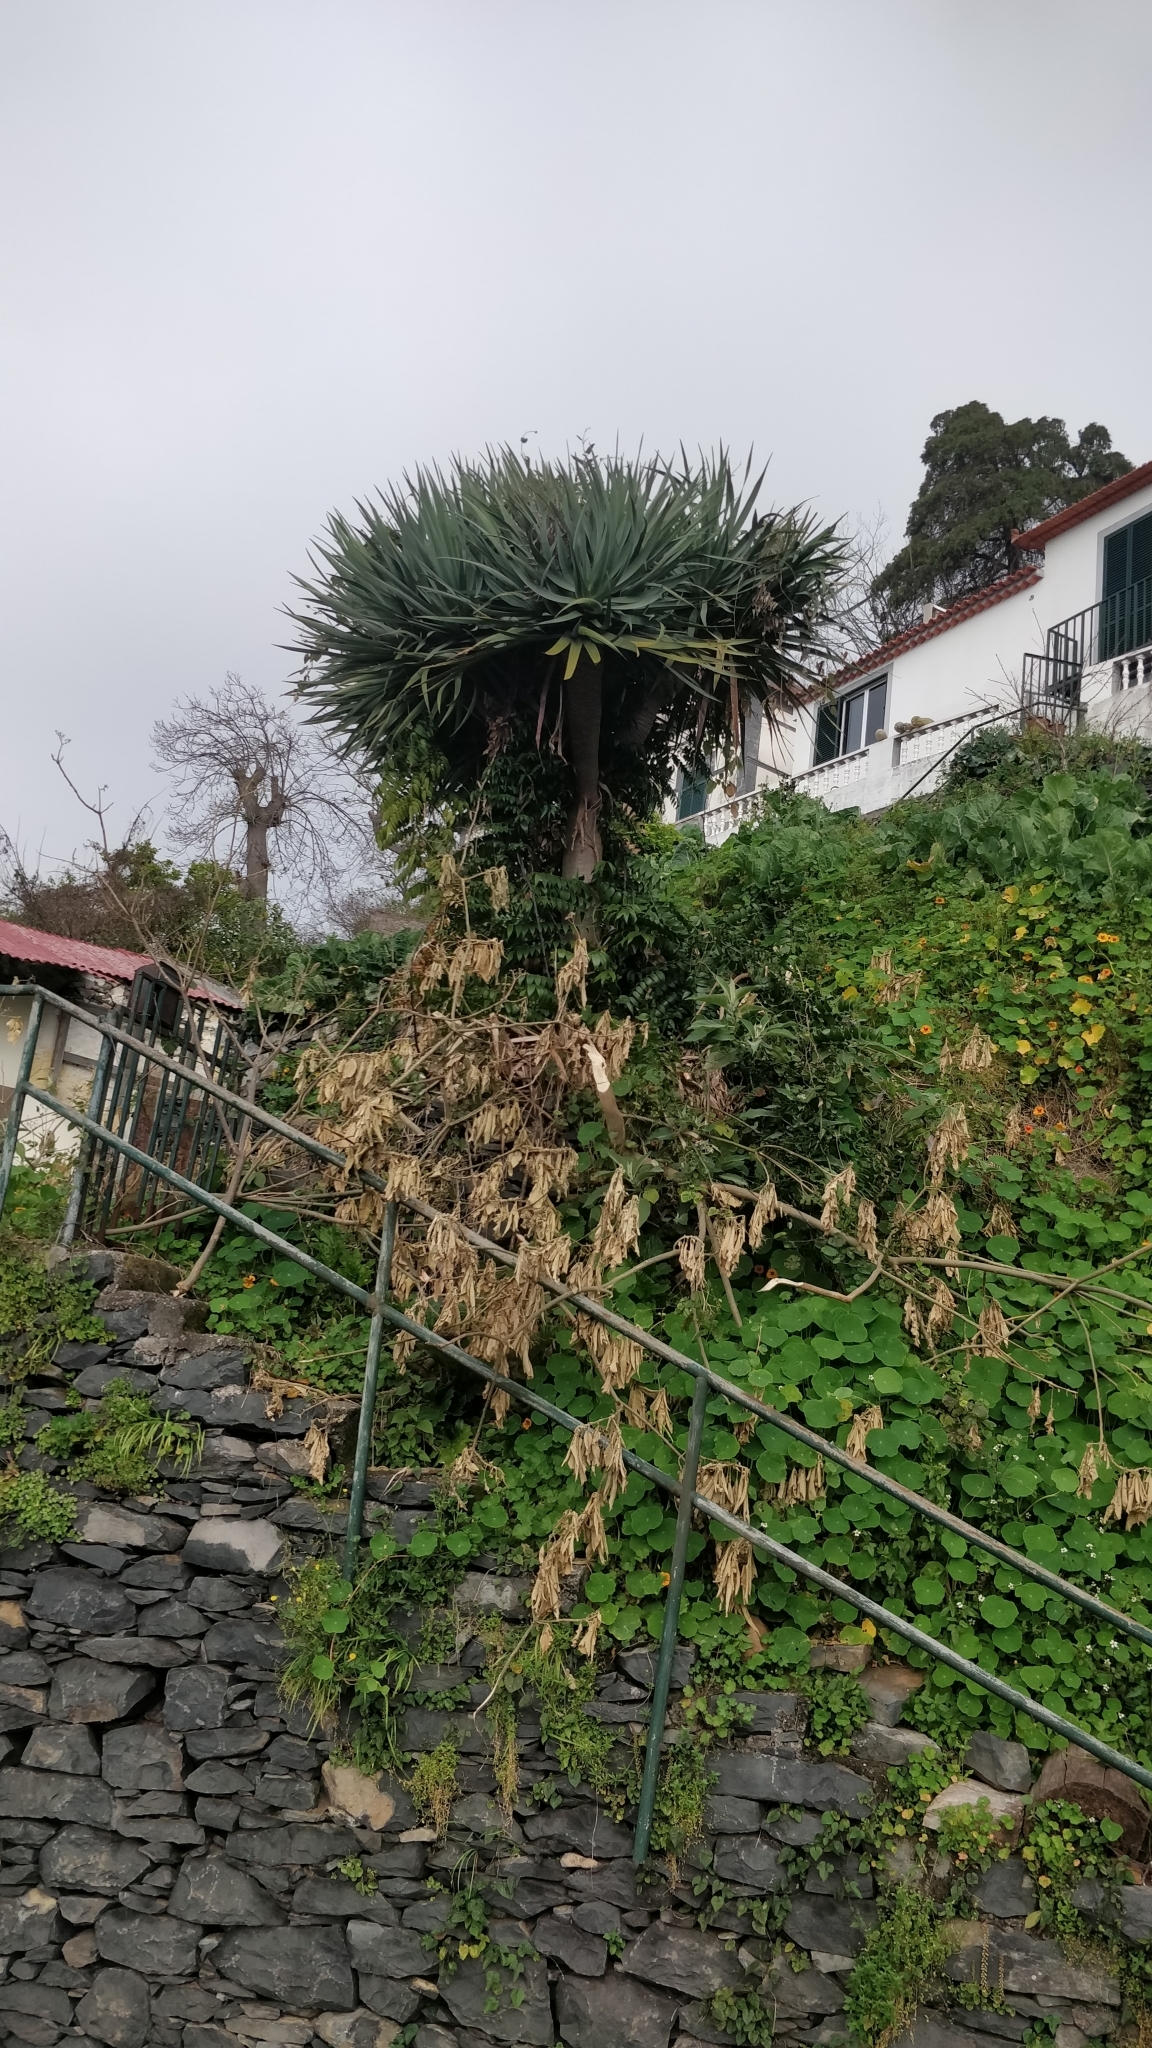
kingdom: Plantae
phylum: Tracheophyta
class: Liliopsida
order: Asparagales
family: Asparagaceae
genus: Semele
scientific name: Semele androgyna
